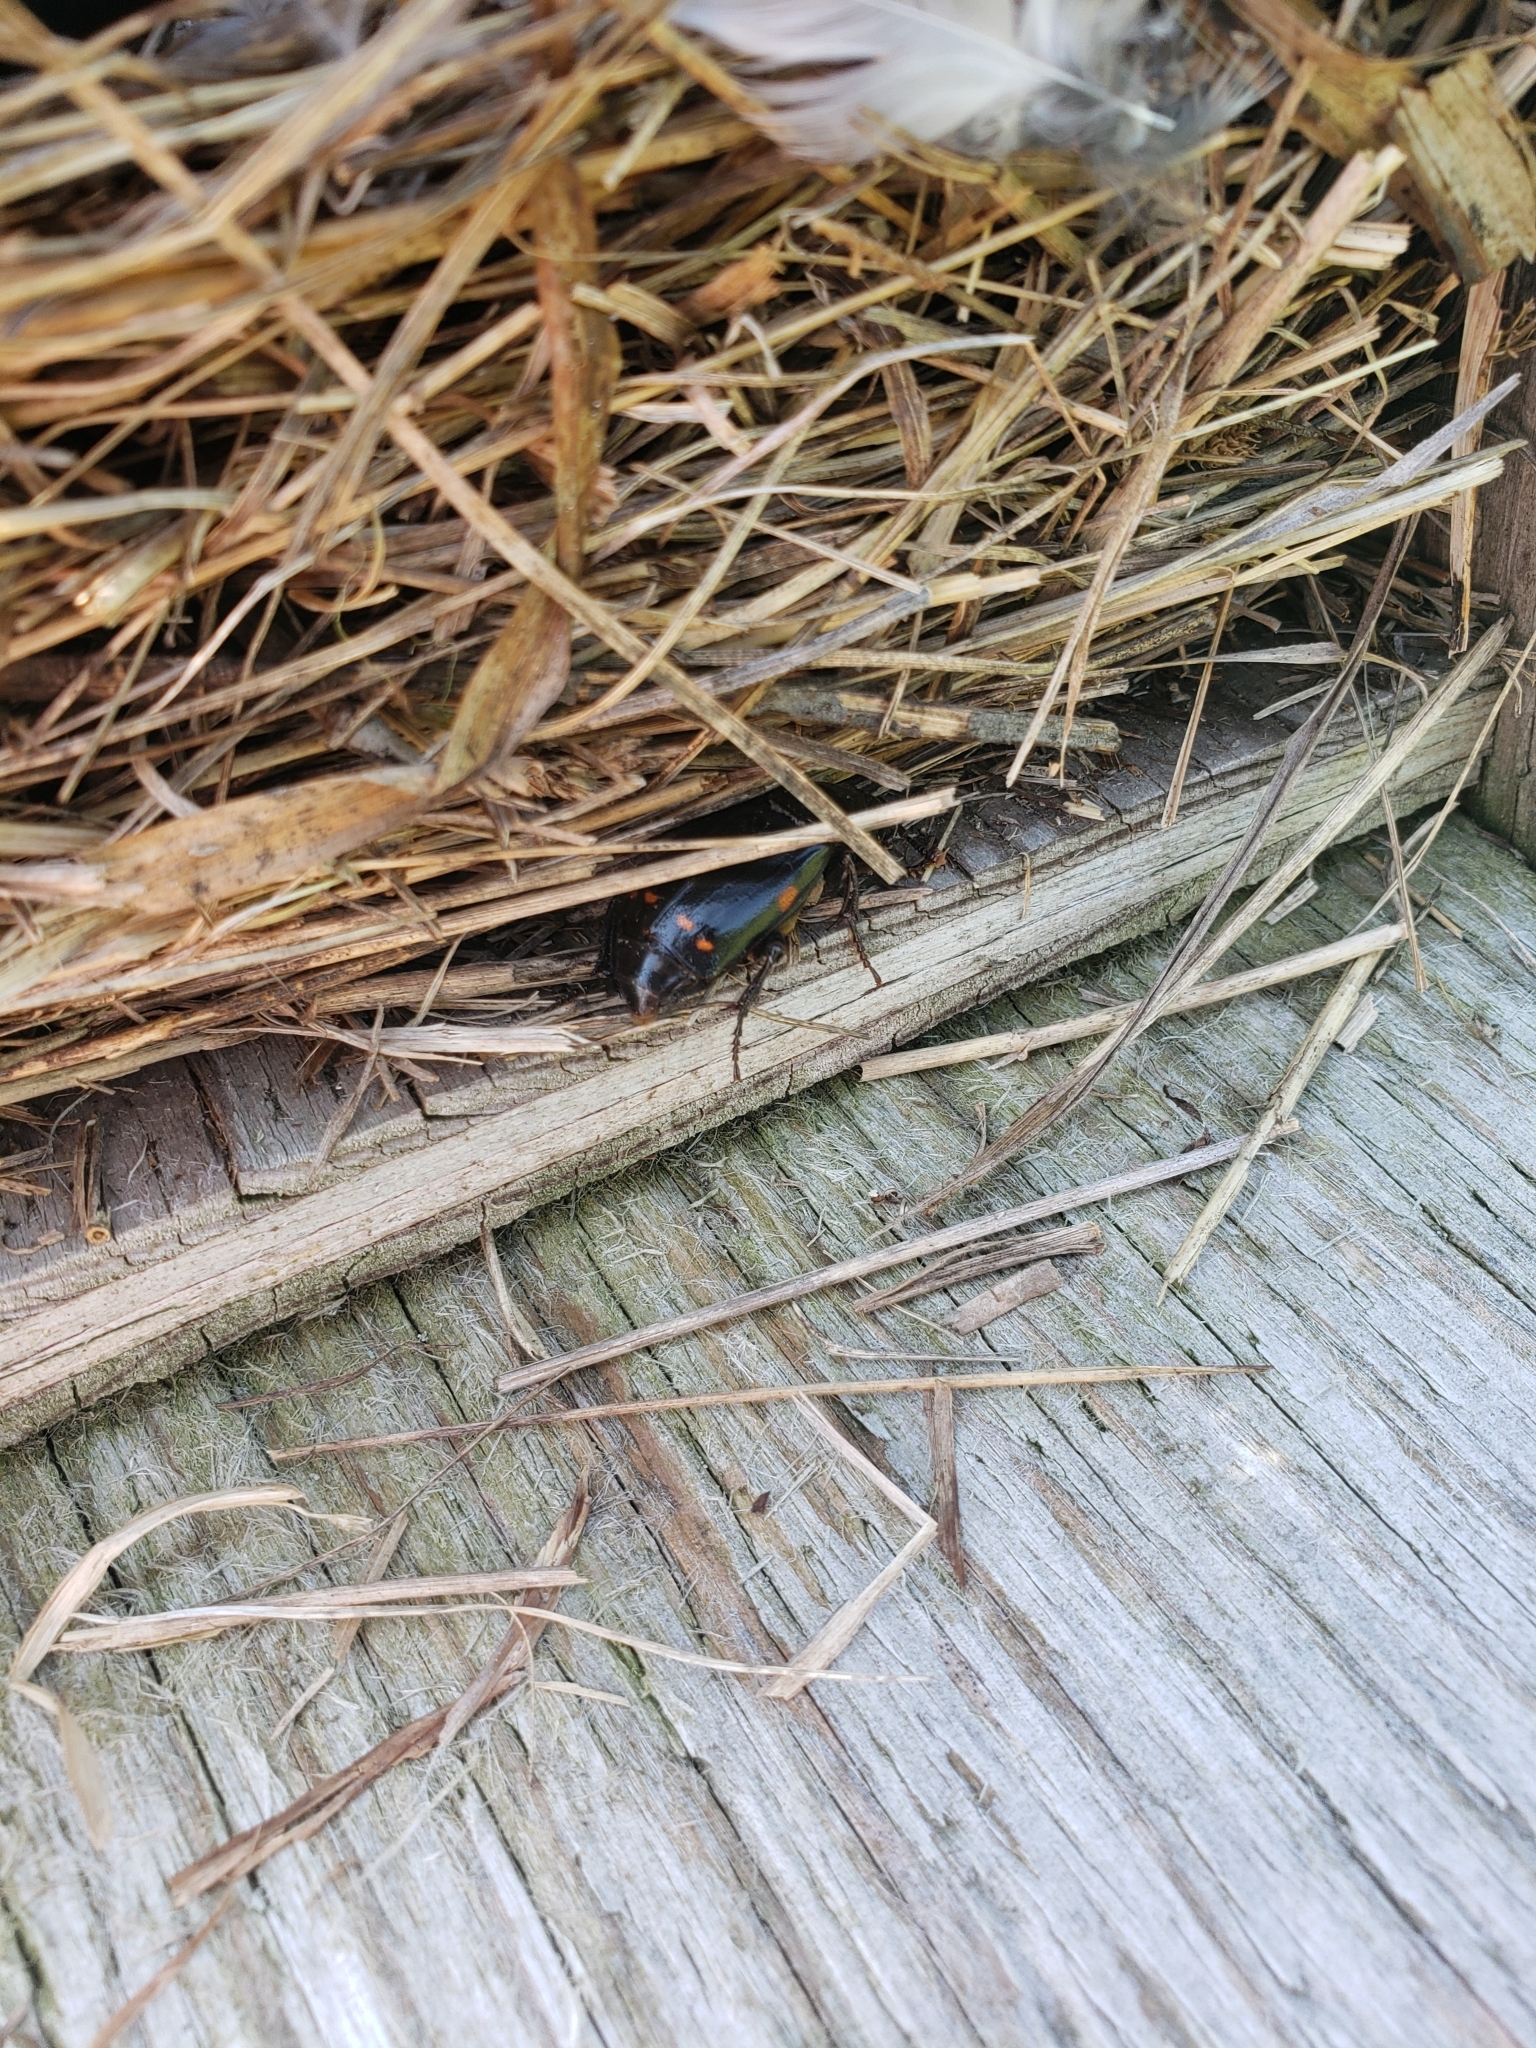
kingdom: Animalia
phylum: Arthropoda
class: Insecta
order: Coleoptera
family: Staphylinidae
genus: Nicrophorus
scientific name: Nicrophorus pustulatus
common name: Pustulated carrion beetle
